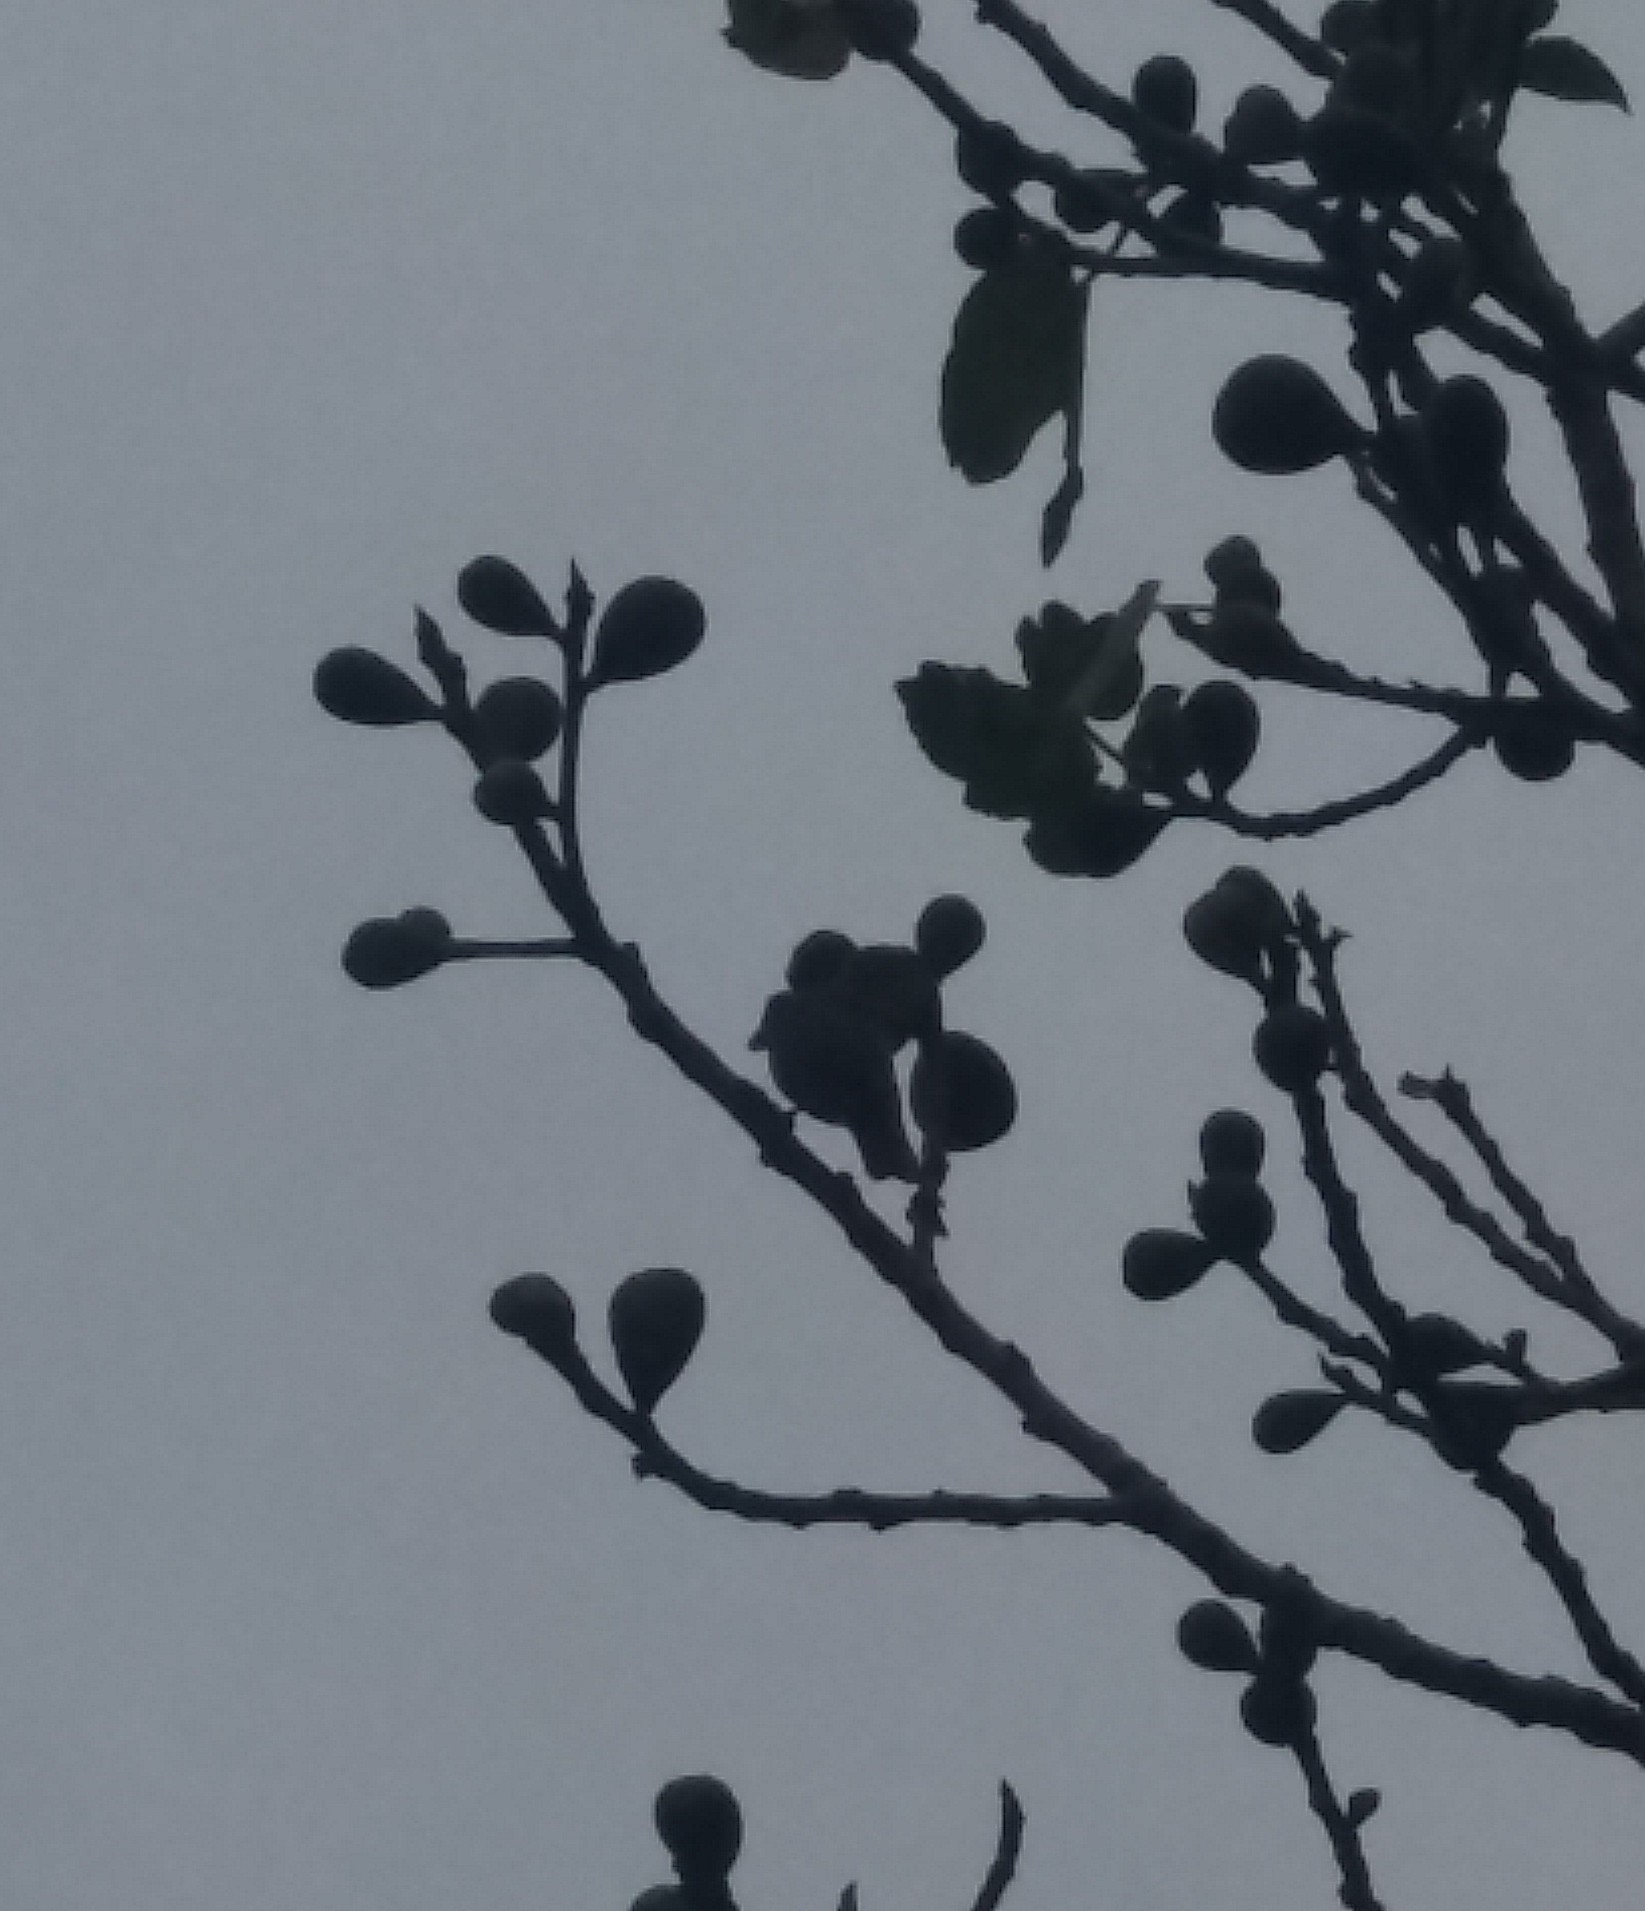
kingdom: Animalia
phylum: Chordata
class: Aves
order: Passeriformes
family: Sturnidae
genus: Sturnus
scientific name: Sturnus vulgaris
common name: Common starling
